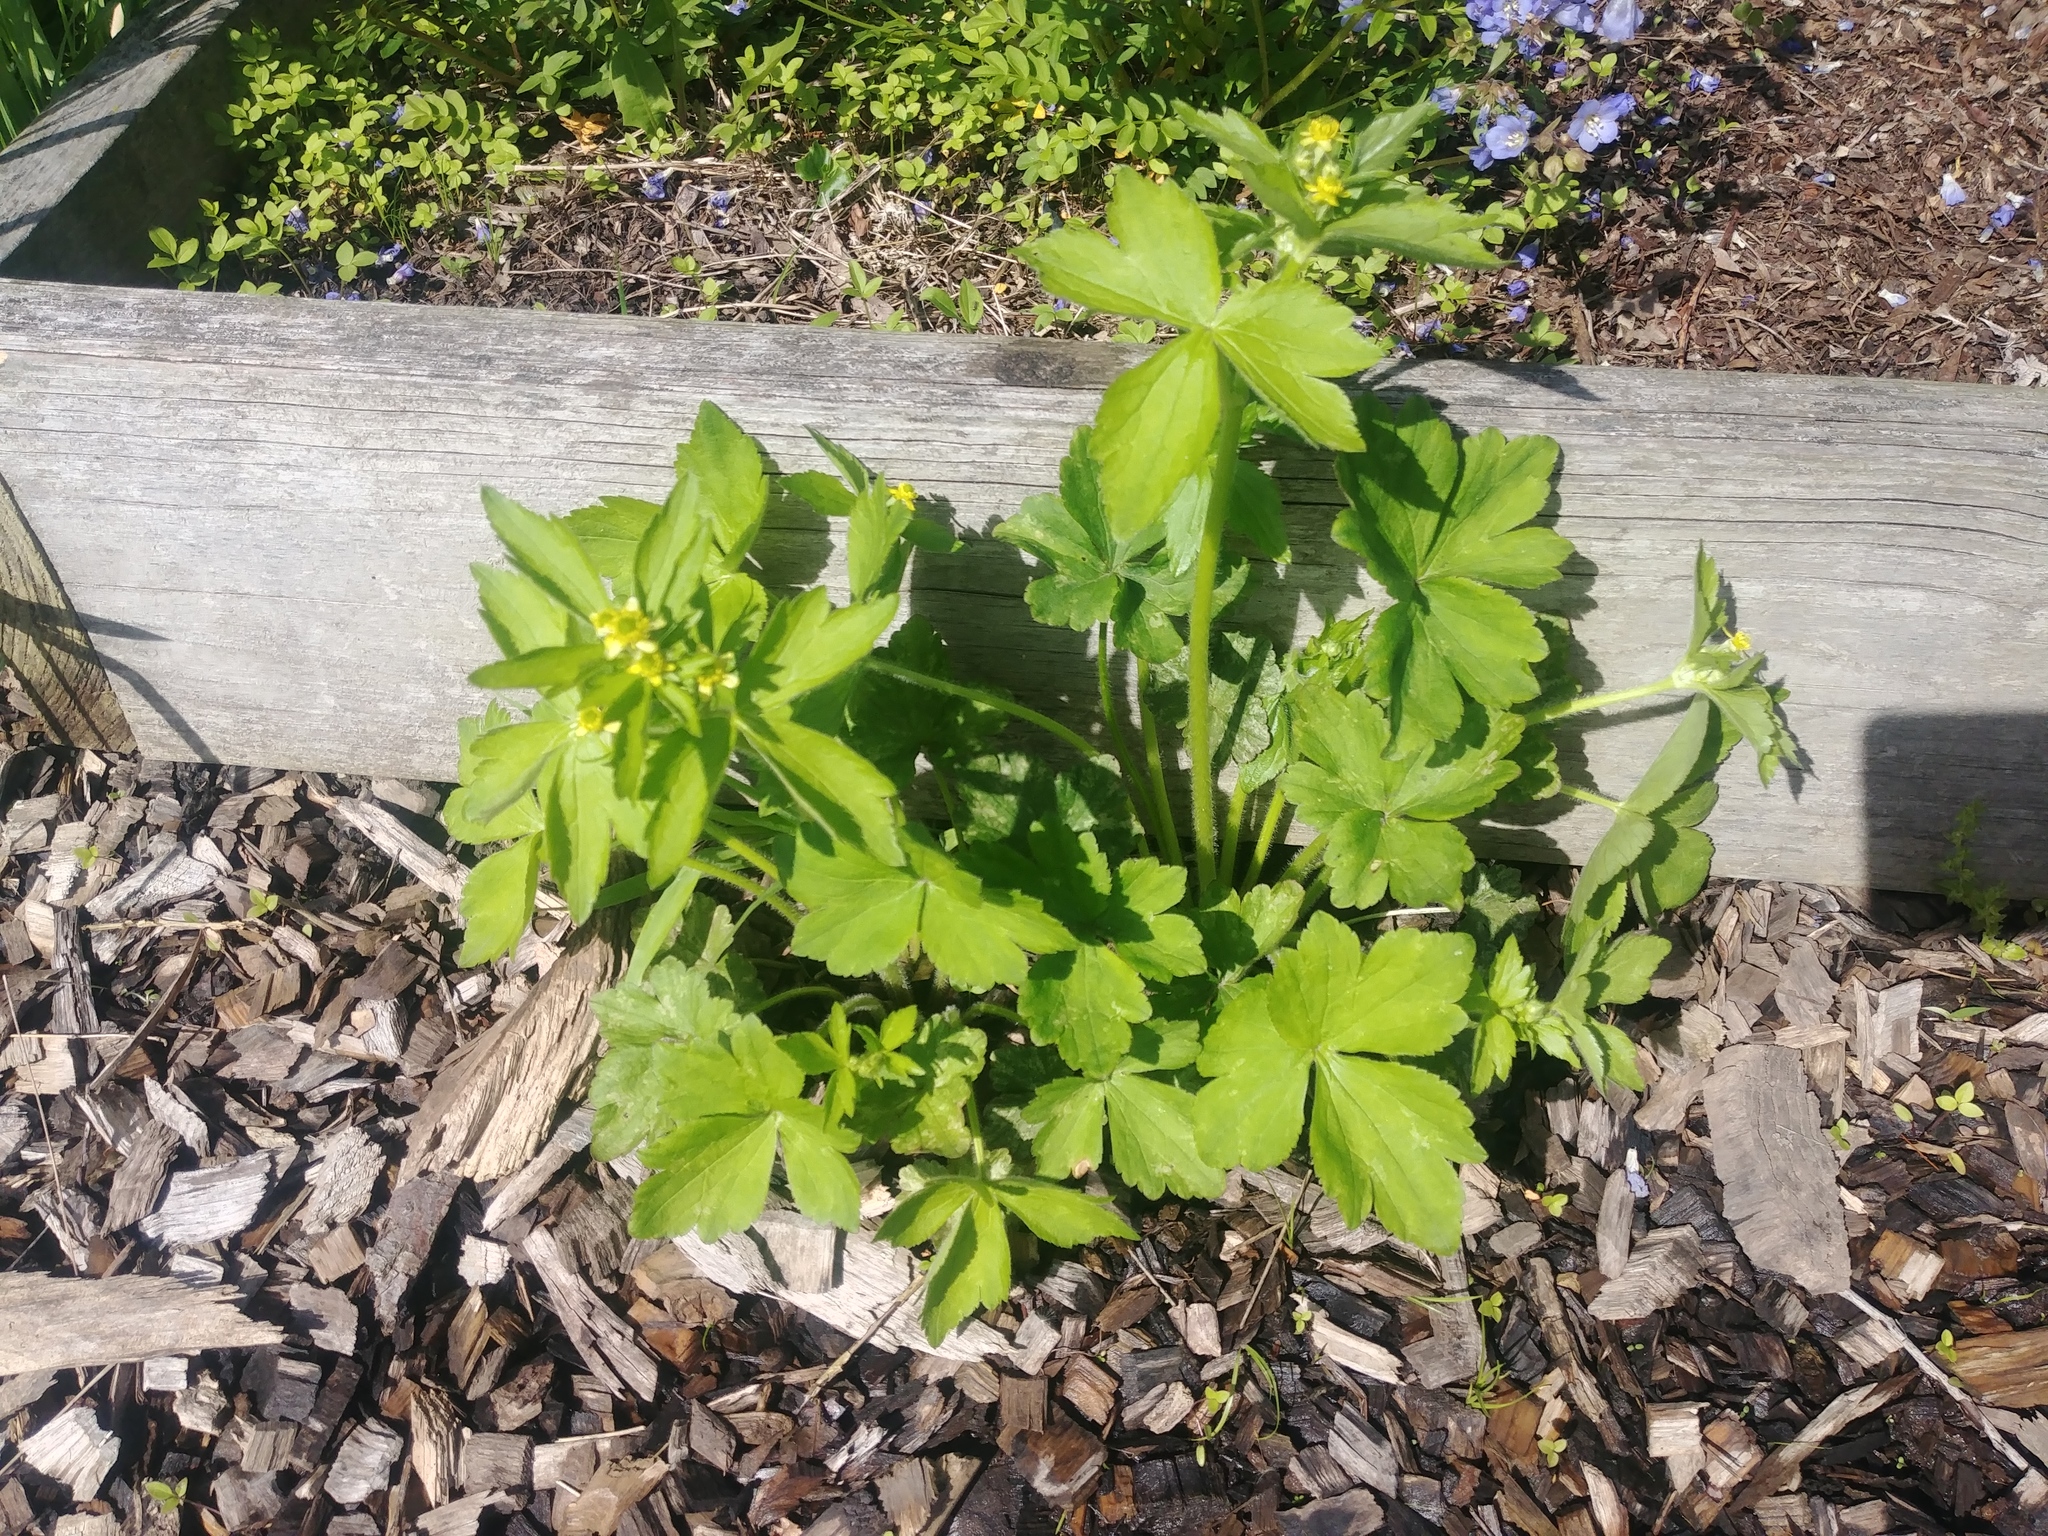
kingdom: Plantae
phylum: Tracheophyta
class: Magnoliopsida
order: Ranunculales
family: Ranunculaceae
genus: Ranunculus
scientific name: Ranunculus recurvatus
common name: Blisterwort
